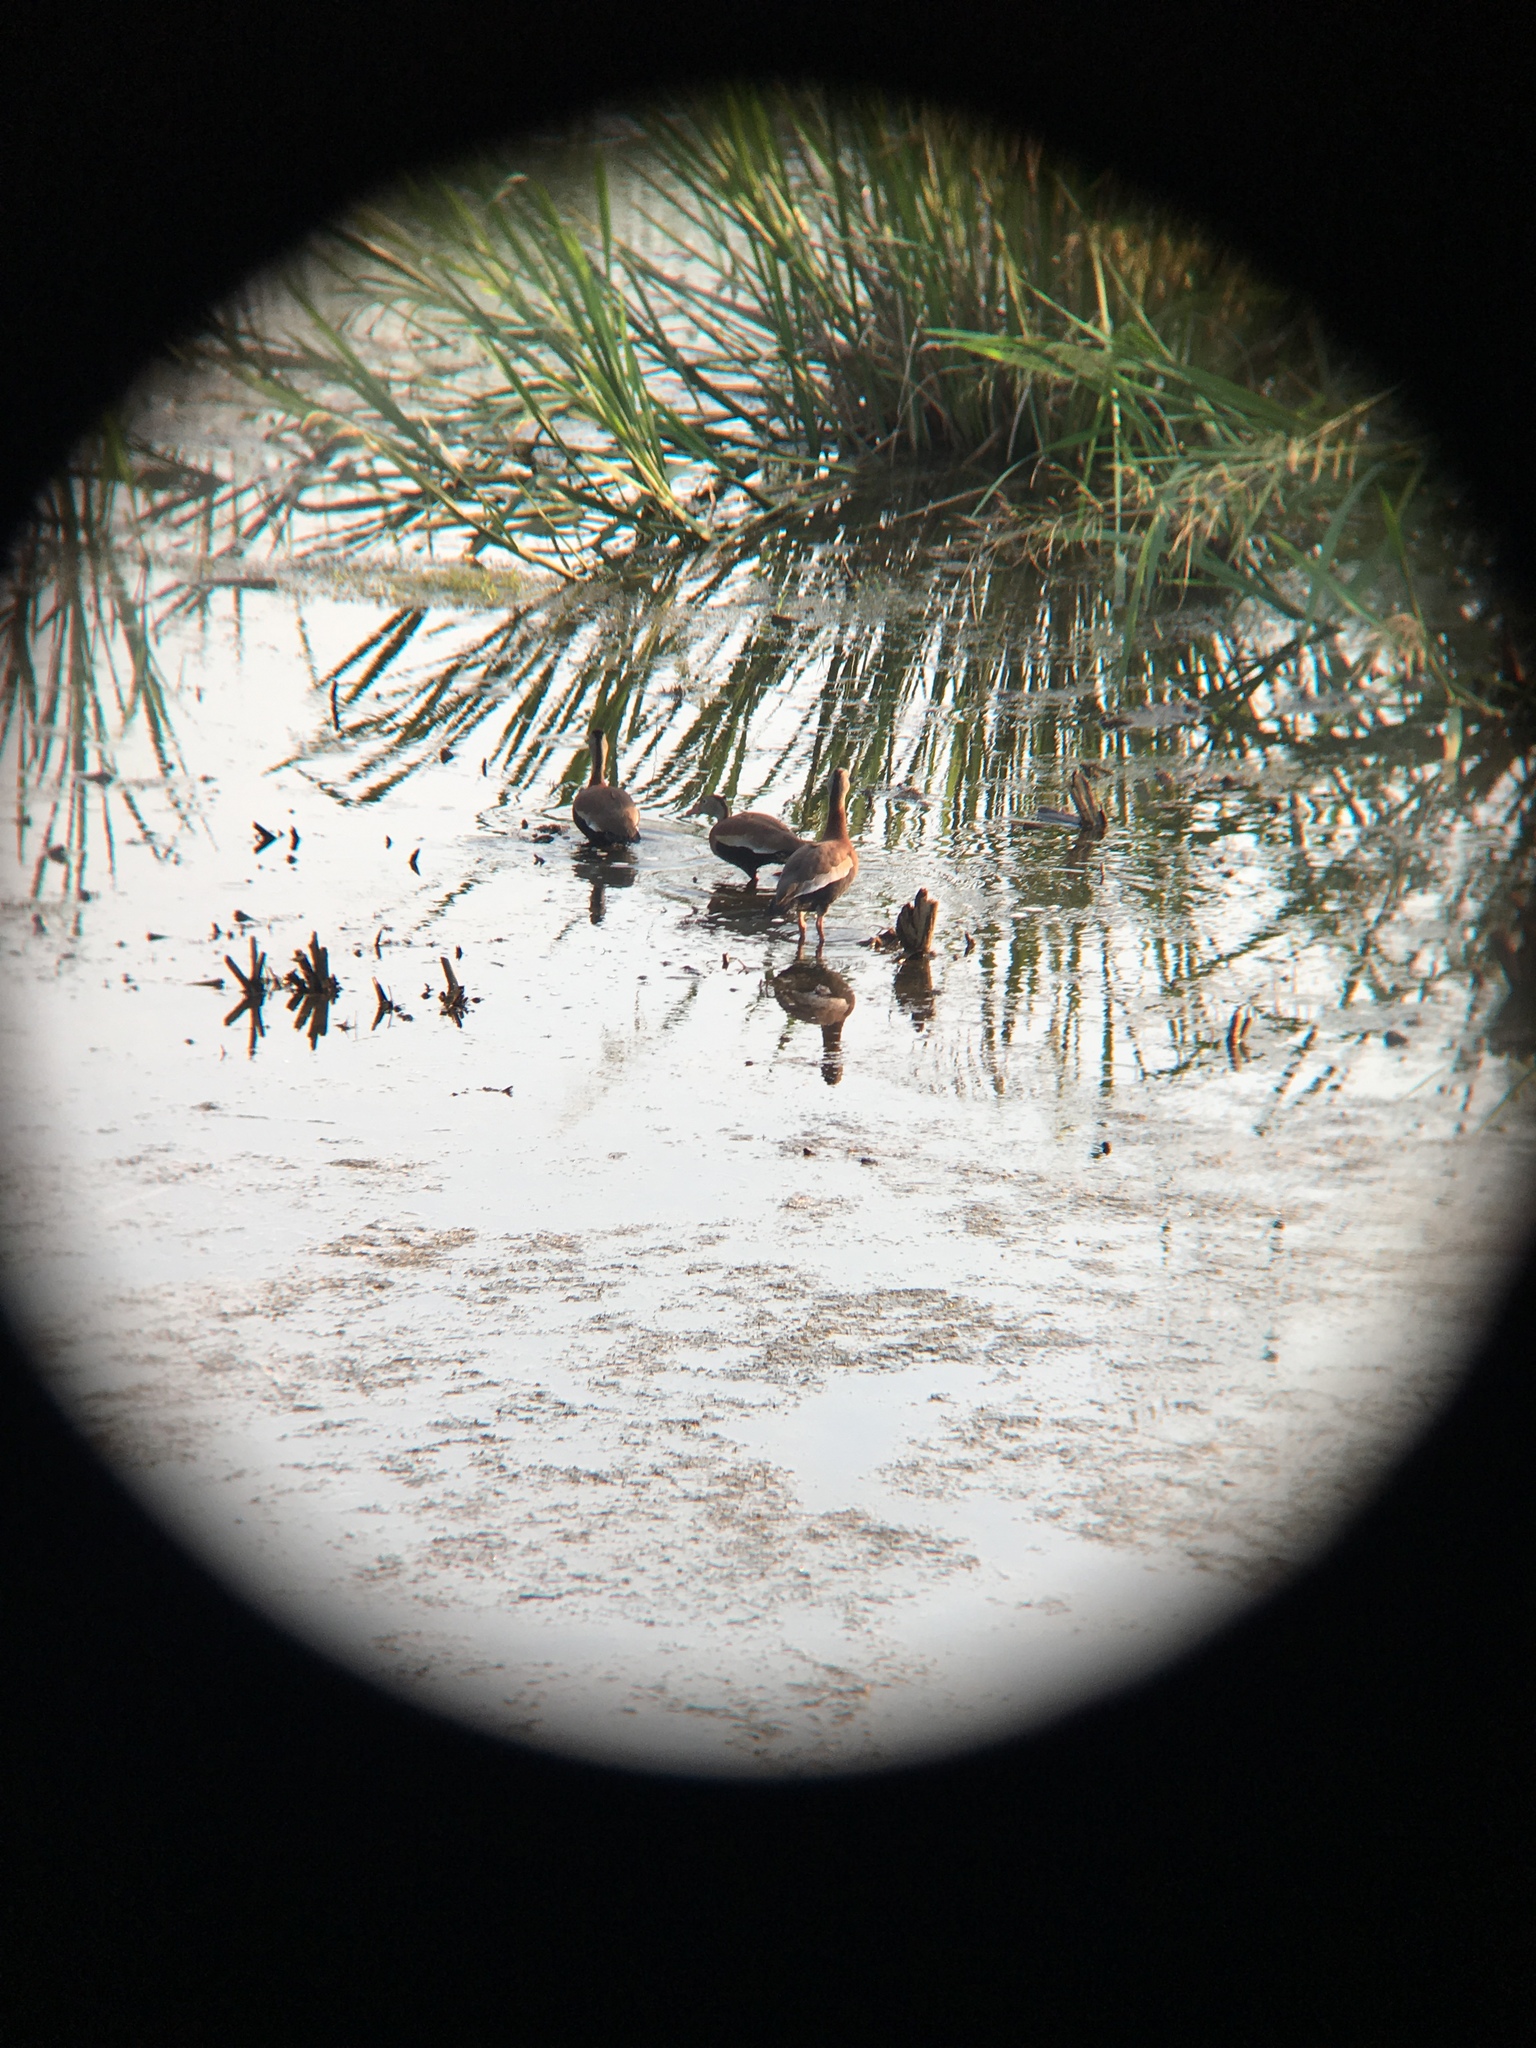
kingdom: Animalia
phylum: Chordata
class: Aves
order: Anseriformes
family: Anatidae
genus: Dendrocygna
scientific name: Dendrocygna autumnalis
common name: Black-bellied whistling duck
